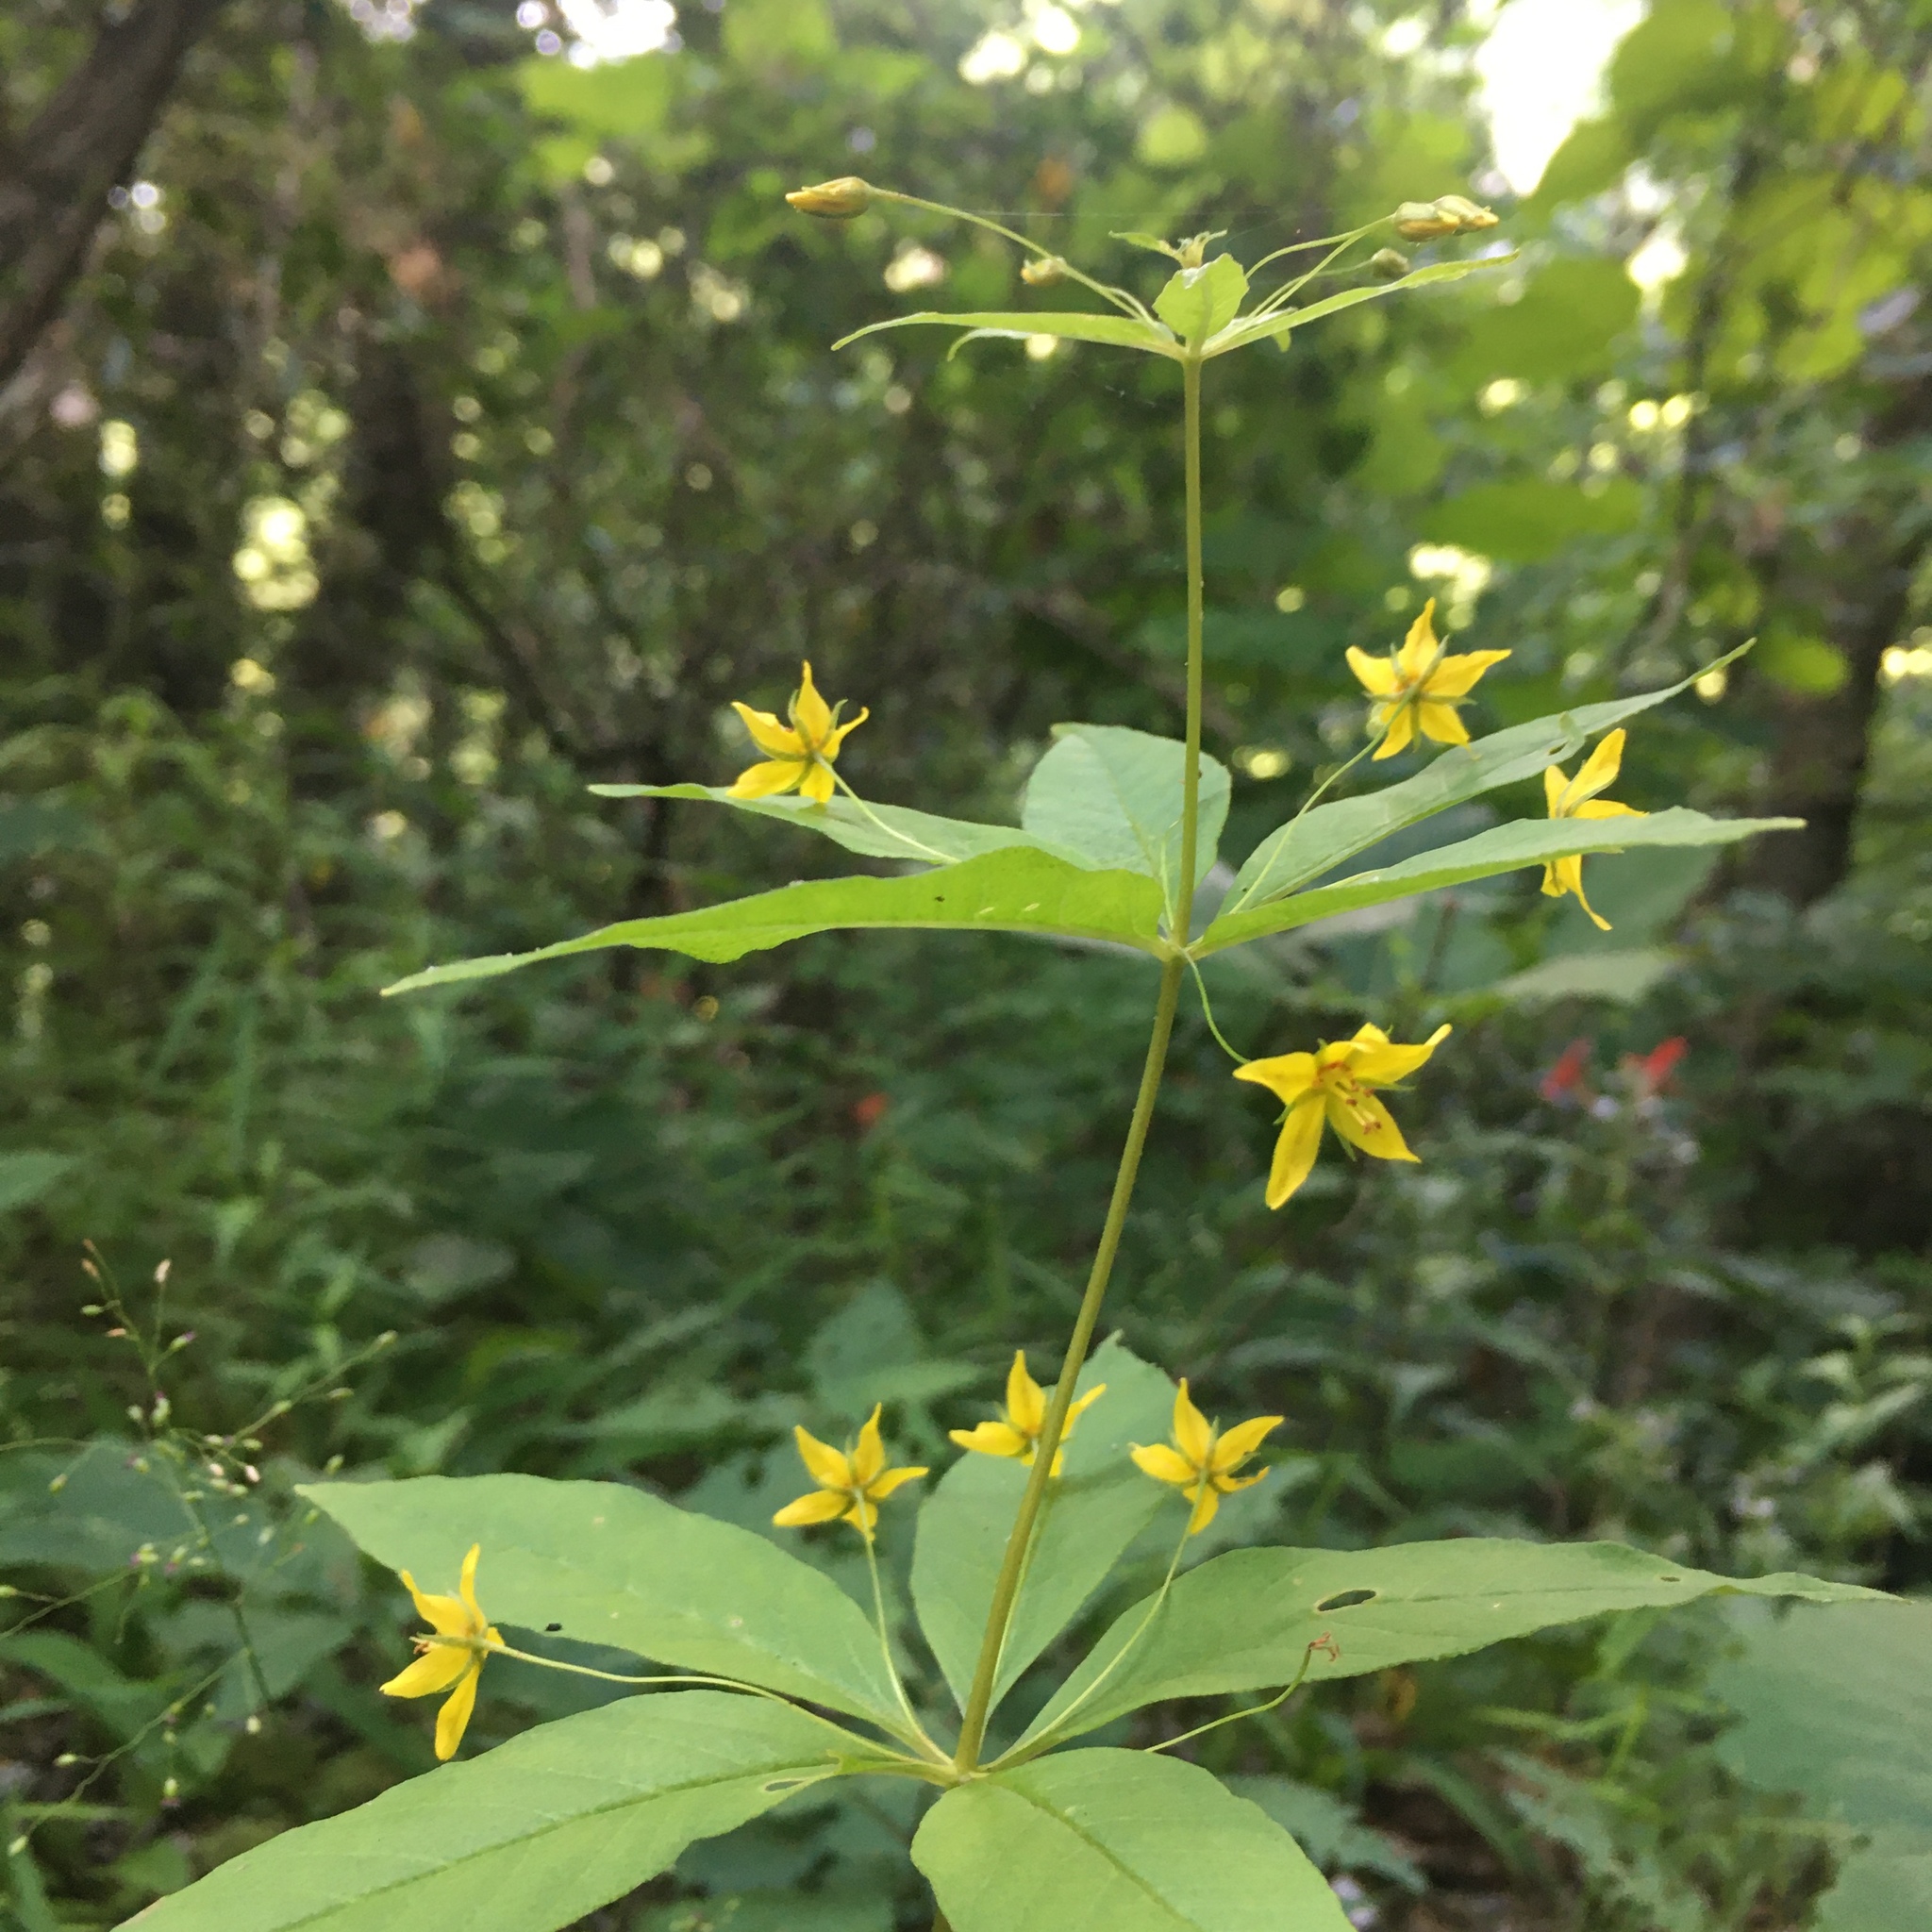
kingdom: Plantae
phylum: Tracheophyta
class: Magnoliopsida
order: Ericales
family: Primulaceae
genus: Lysimachia
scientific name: Lysimachia quadrifolia
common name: Whorled loosestrife
